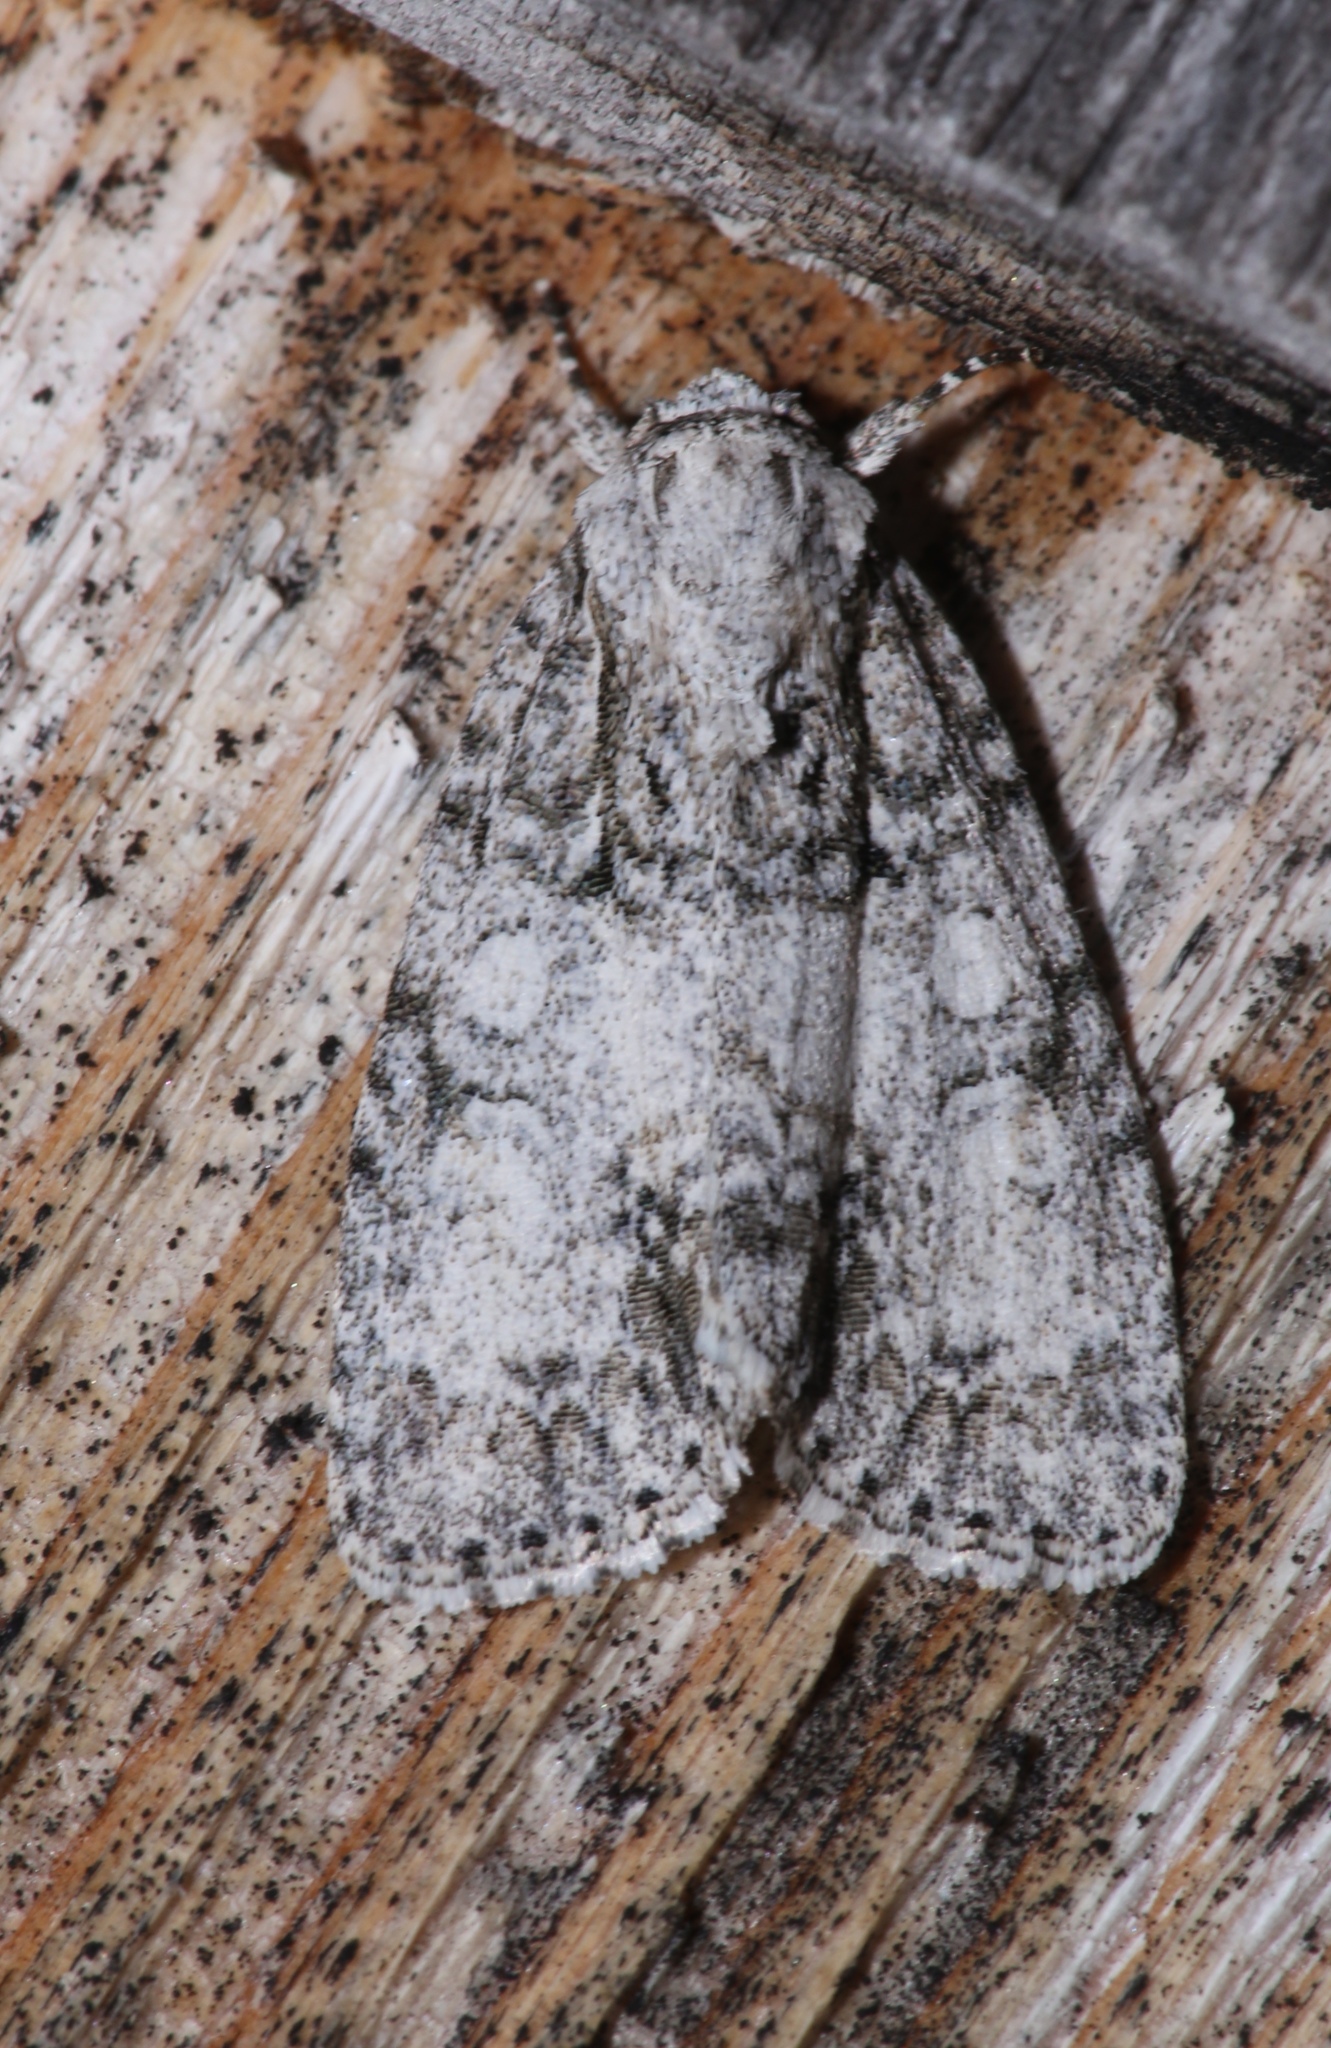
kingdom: Animalia
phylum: Arthropoda
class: Insecta
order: Lepidoptera
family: Noctuidae
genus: Acronicta
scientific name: Acronicta retardata
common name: Maple dagger
